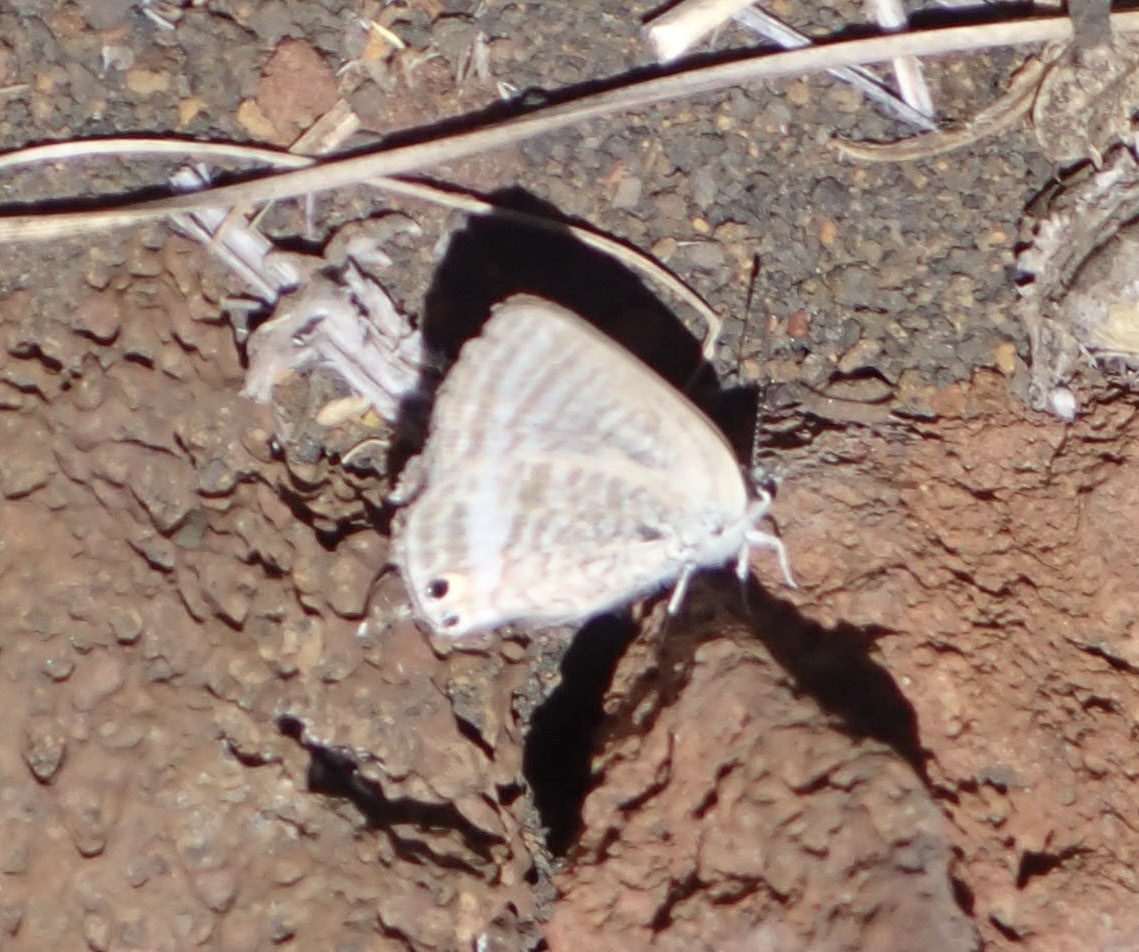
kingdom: Animalia
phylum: Arthropoda
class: Insecta
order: Lepidoptera
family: Lycaenidae
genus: Lampides
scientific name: Lampides boeticus
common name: Long-tailed blue
